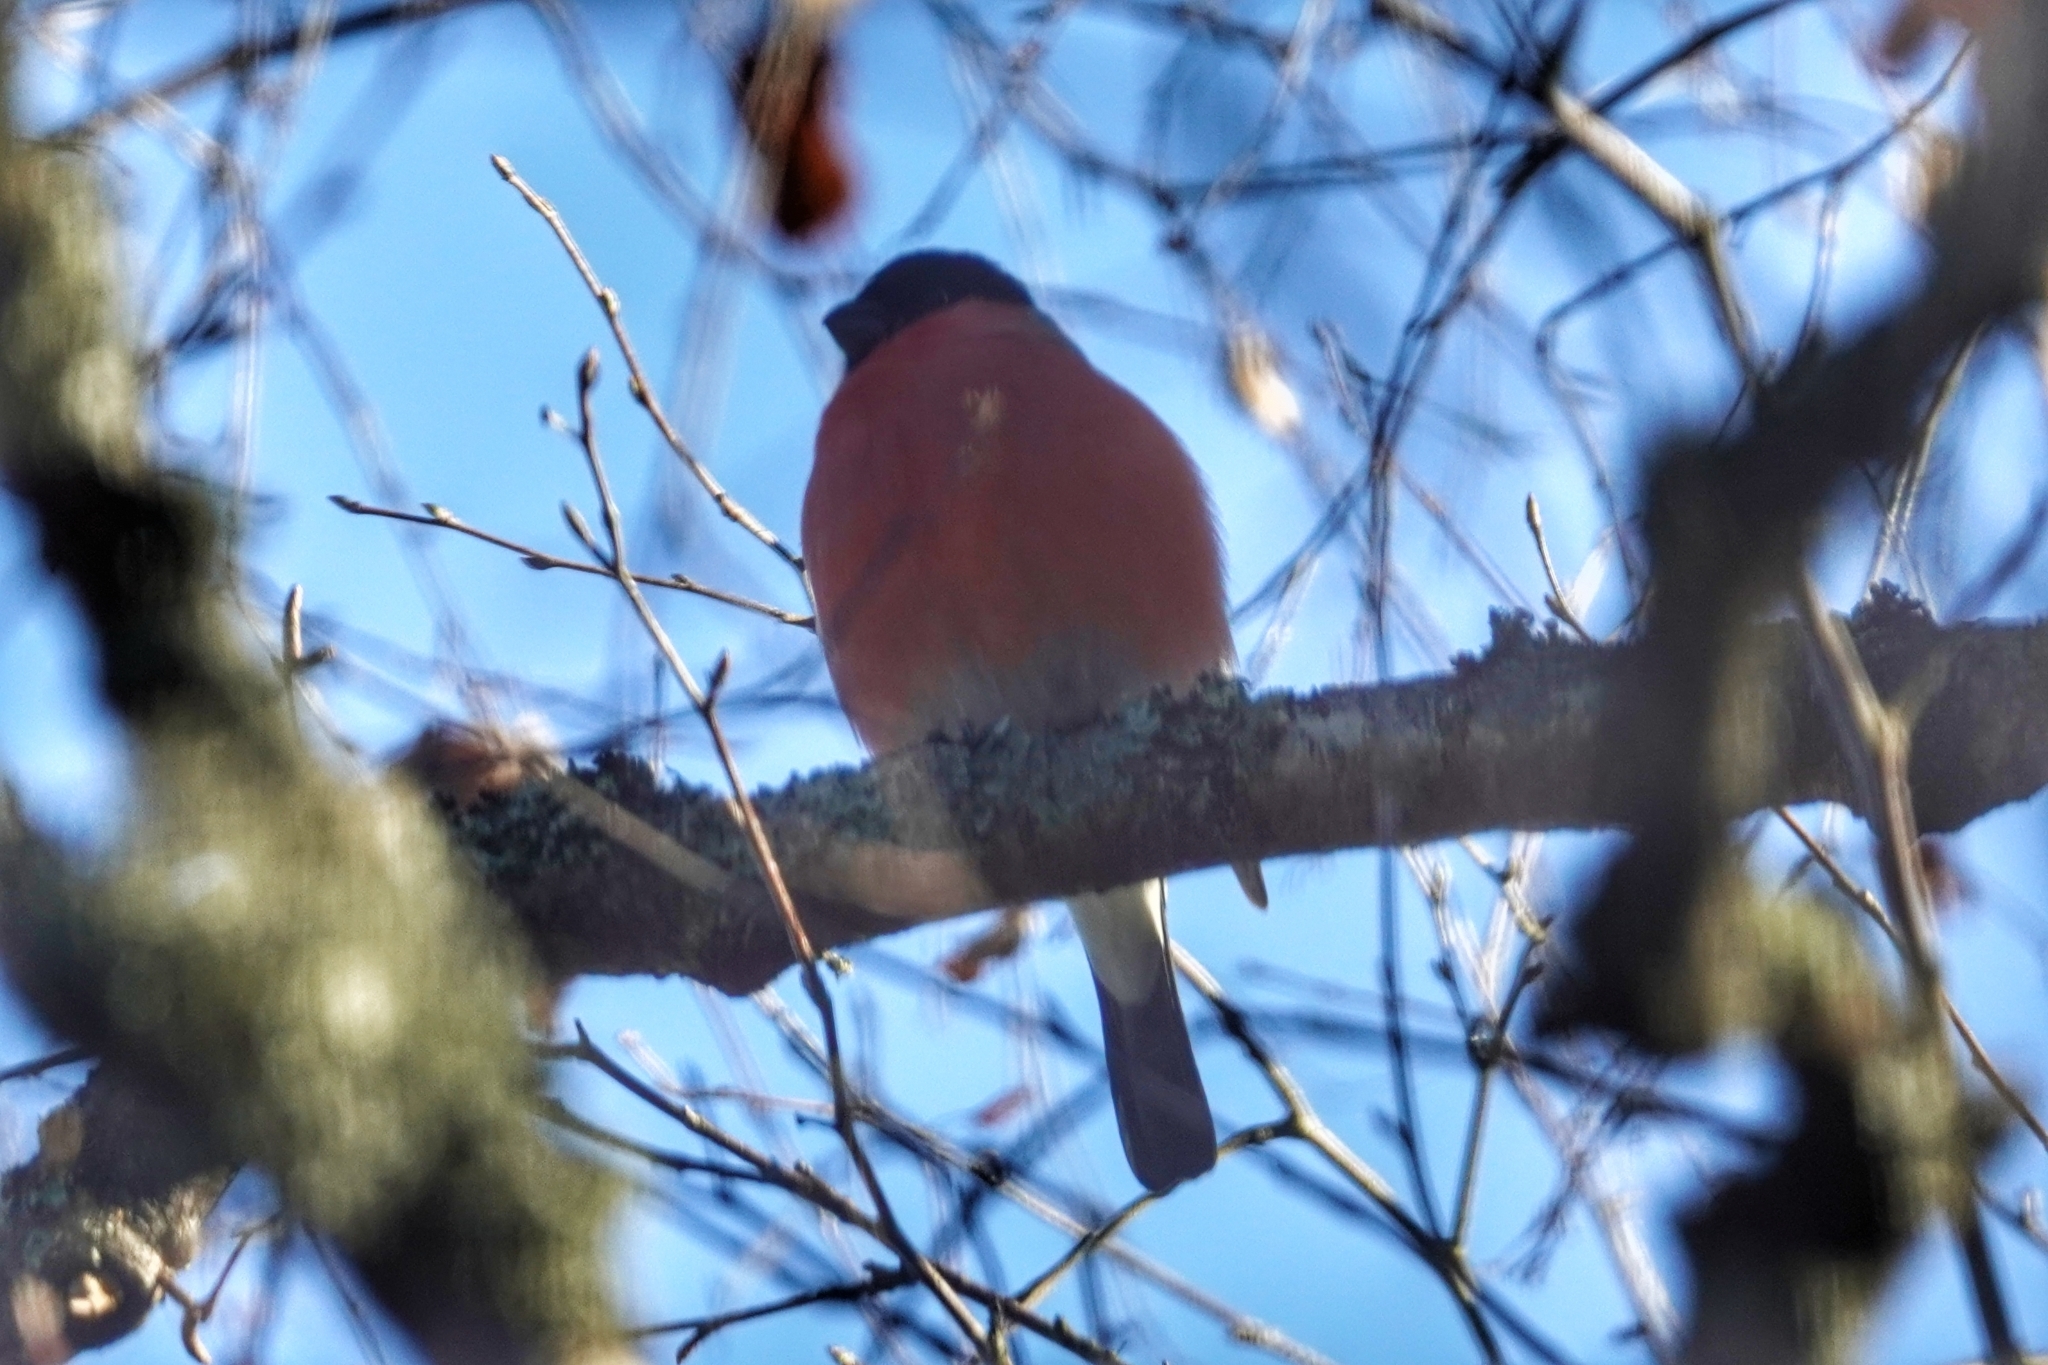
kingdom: Animalia
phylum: Chordata
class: Aves
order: Passeriformes
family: Fringillidae
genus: Pyrrhula
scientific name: Pyrrhula pyrrhula
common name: Eurasian bullfinch
